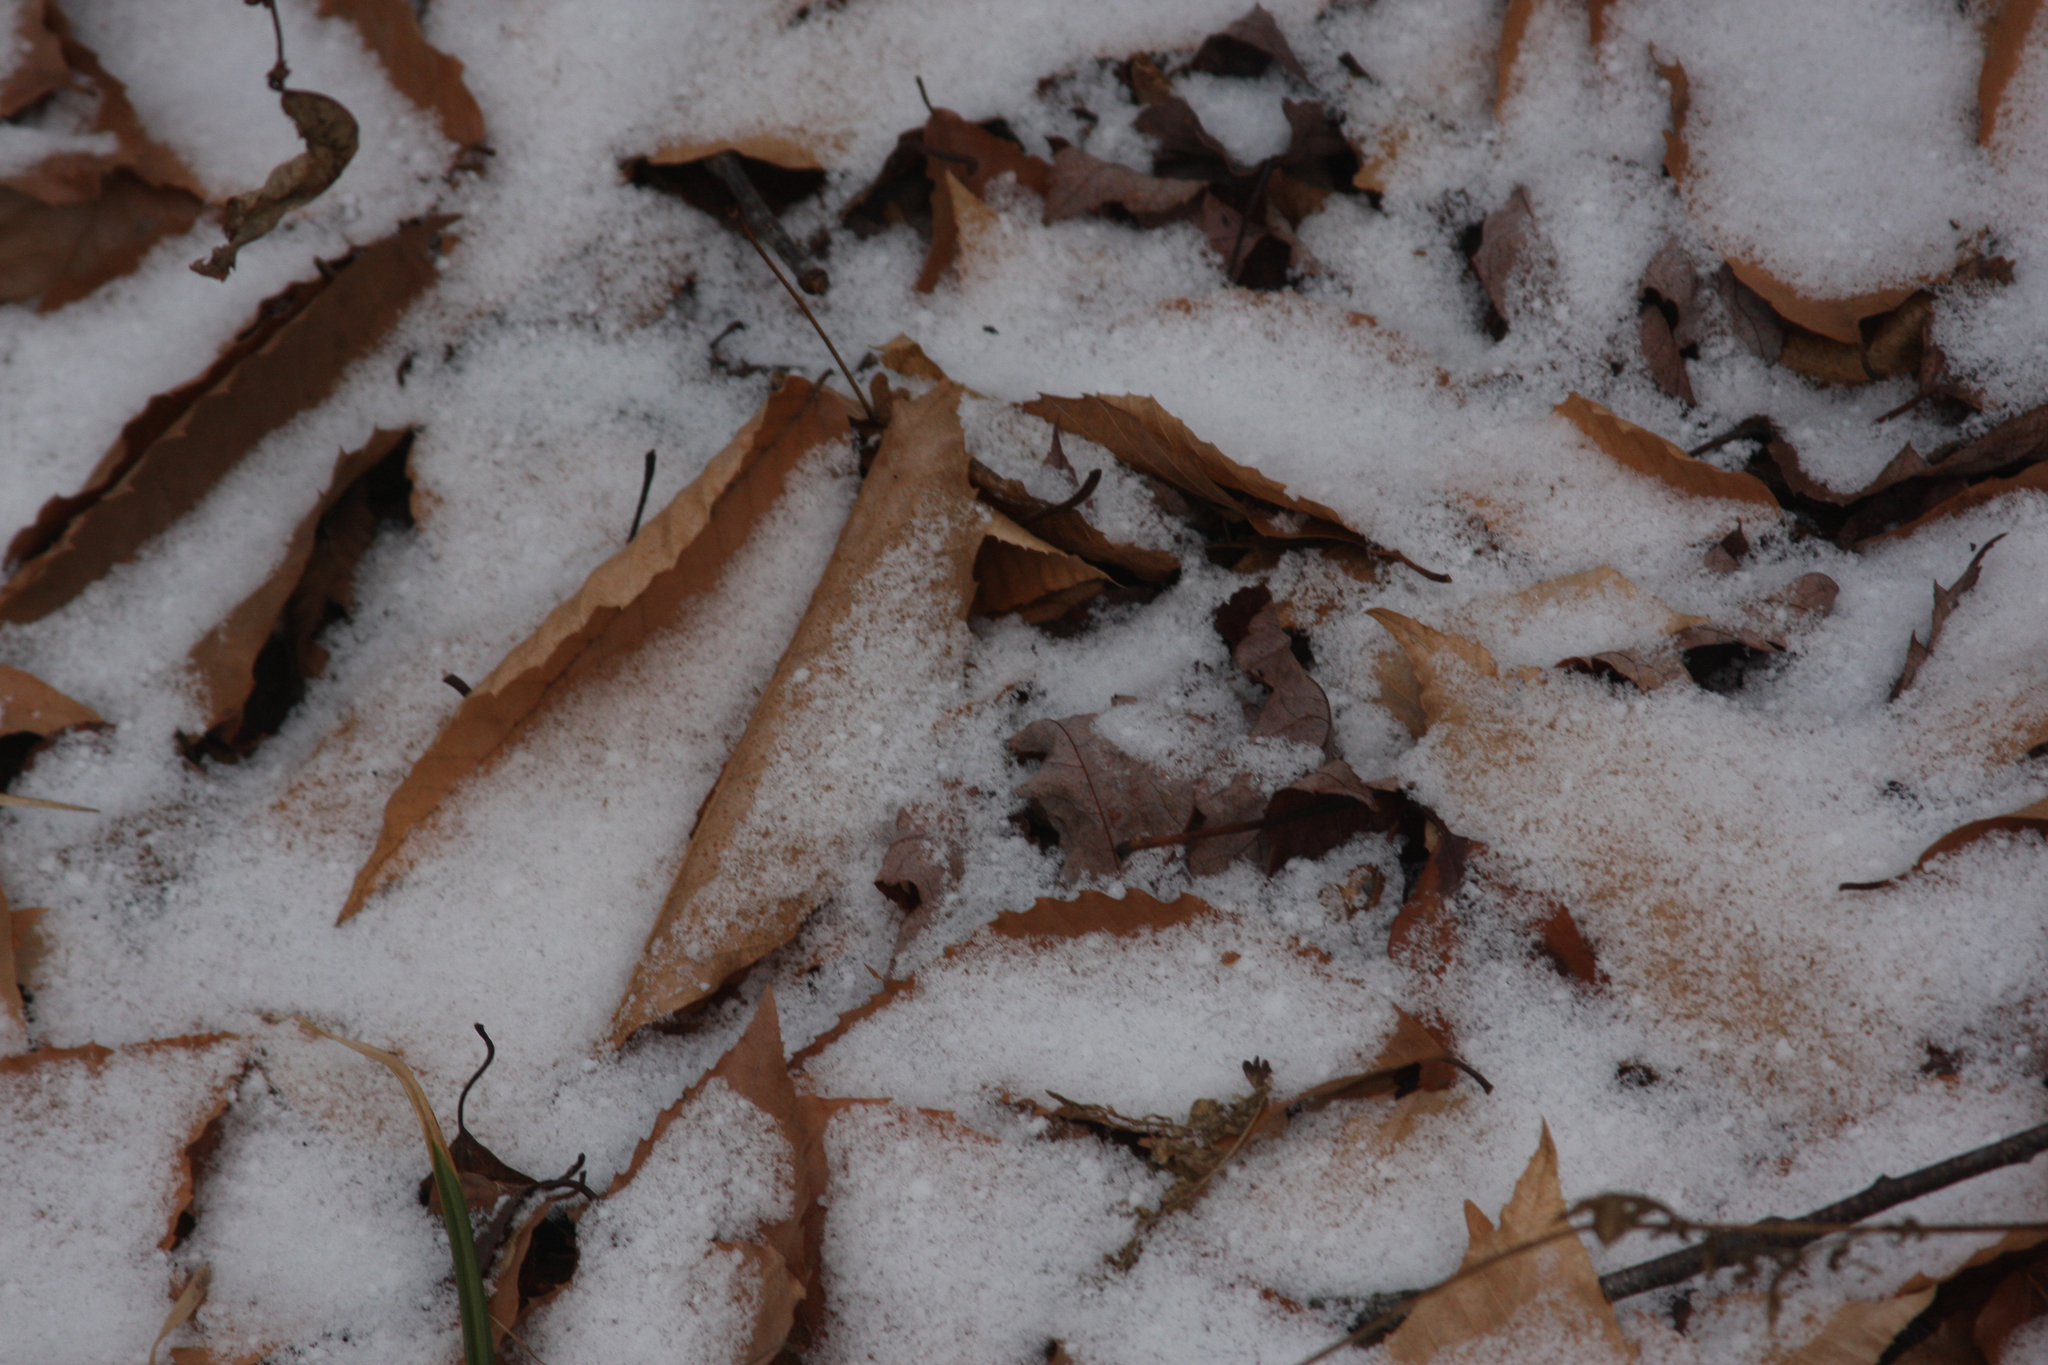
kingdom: Plantae
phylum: Tracheophyta
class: Magnoliopsida
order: Fagales
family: Fagaceae
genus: Fagus
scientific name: Fagus grandifolia
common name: American beech
